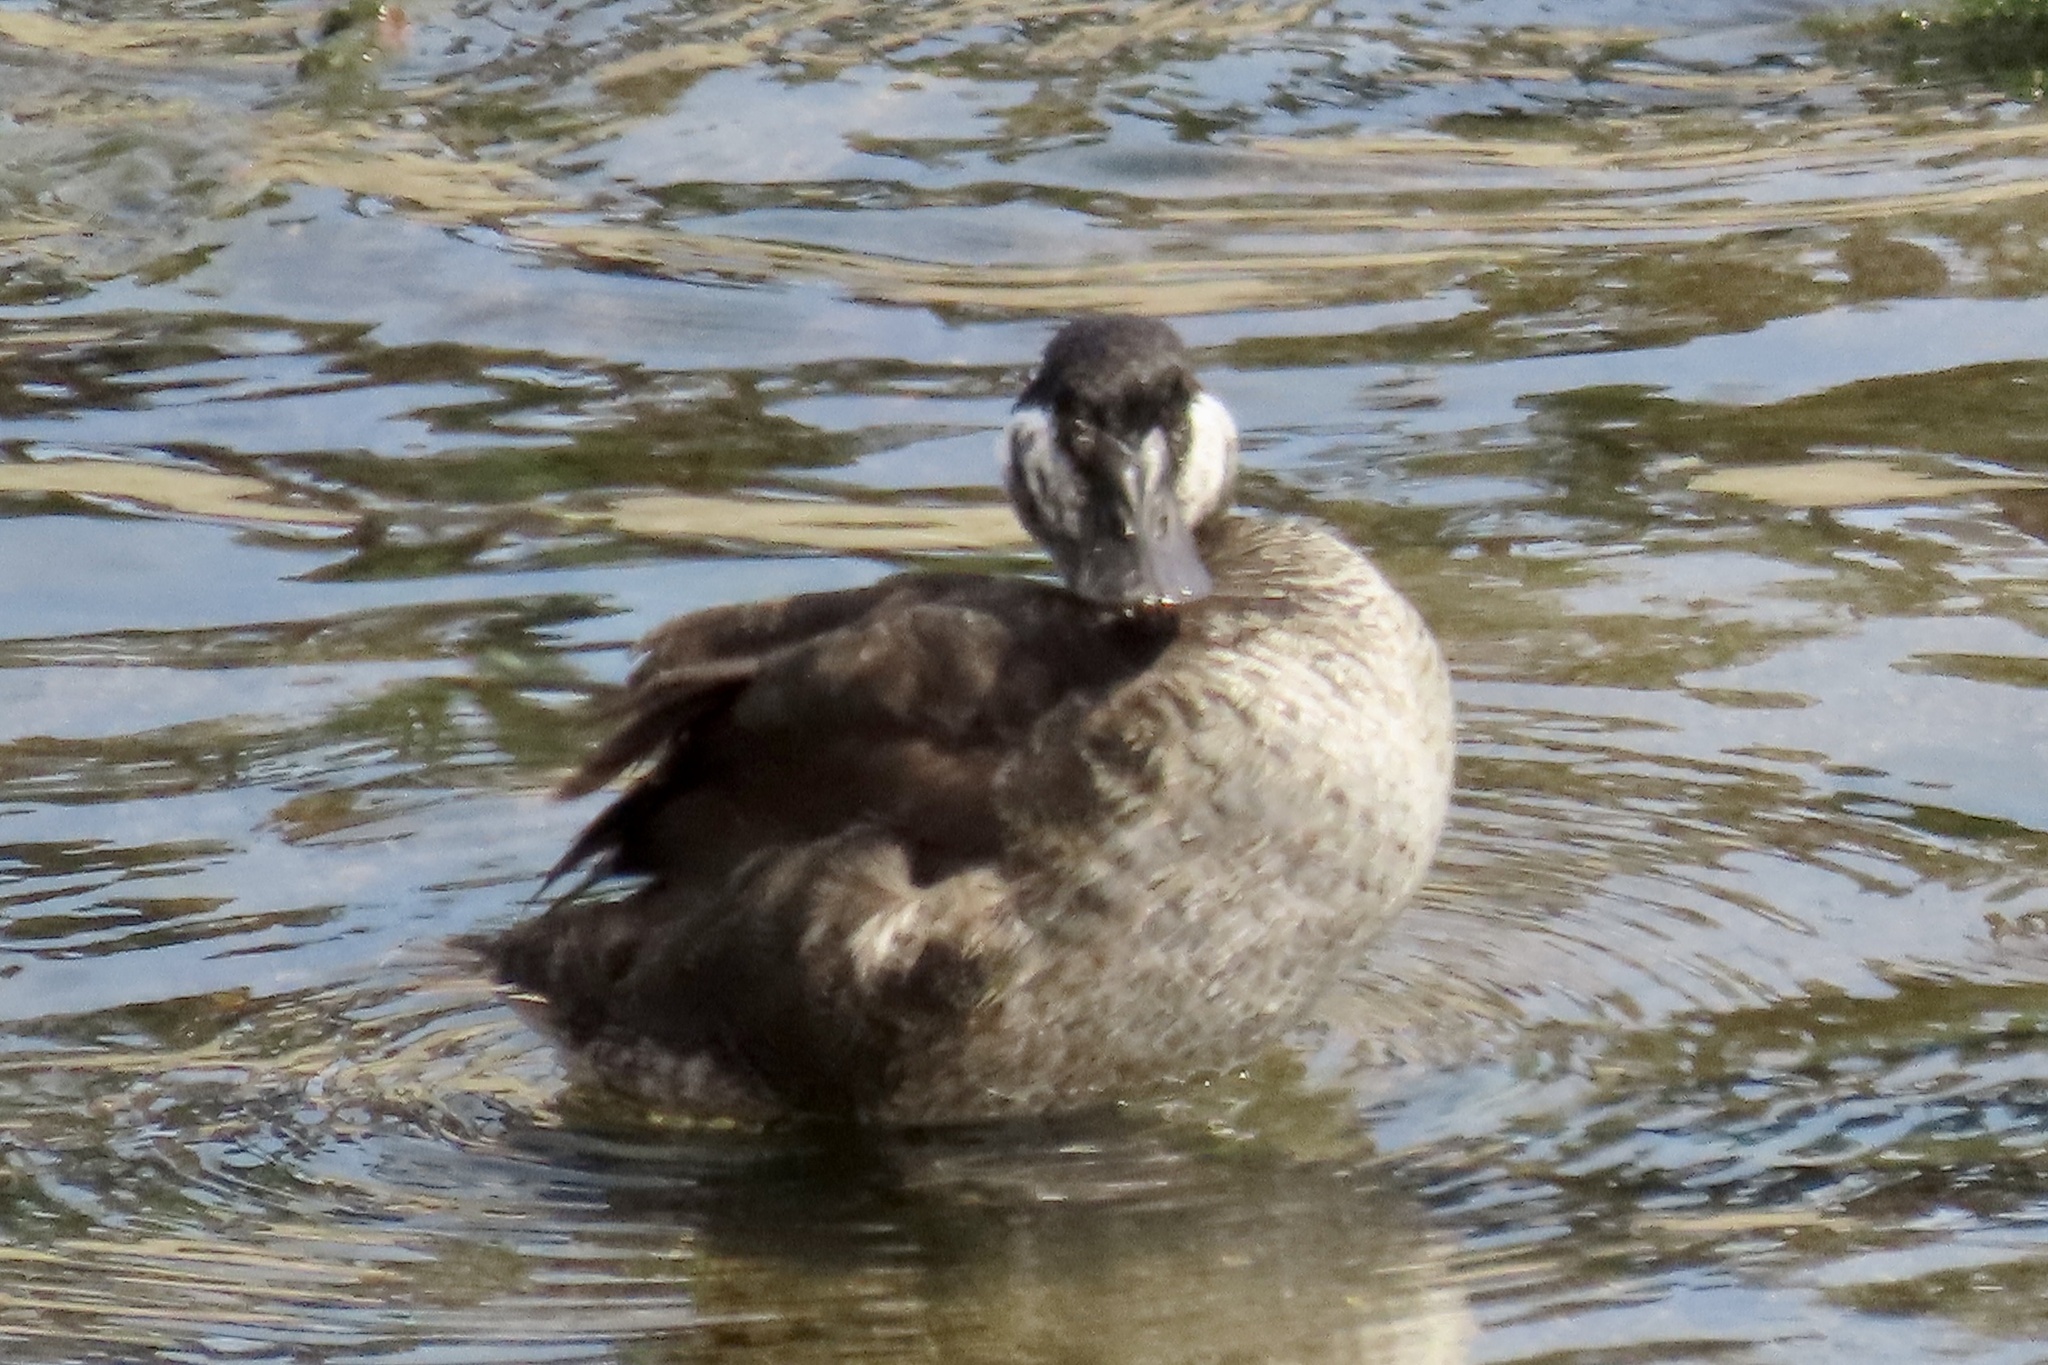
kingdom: Animalia
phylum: Chordata
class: Aves
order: Anseriformes
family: Anatidae
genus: Oxyura
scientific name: Oxyura jamaicensis
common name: Ruddy duck
